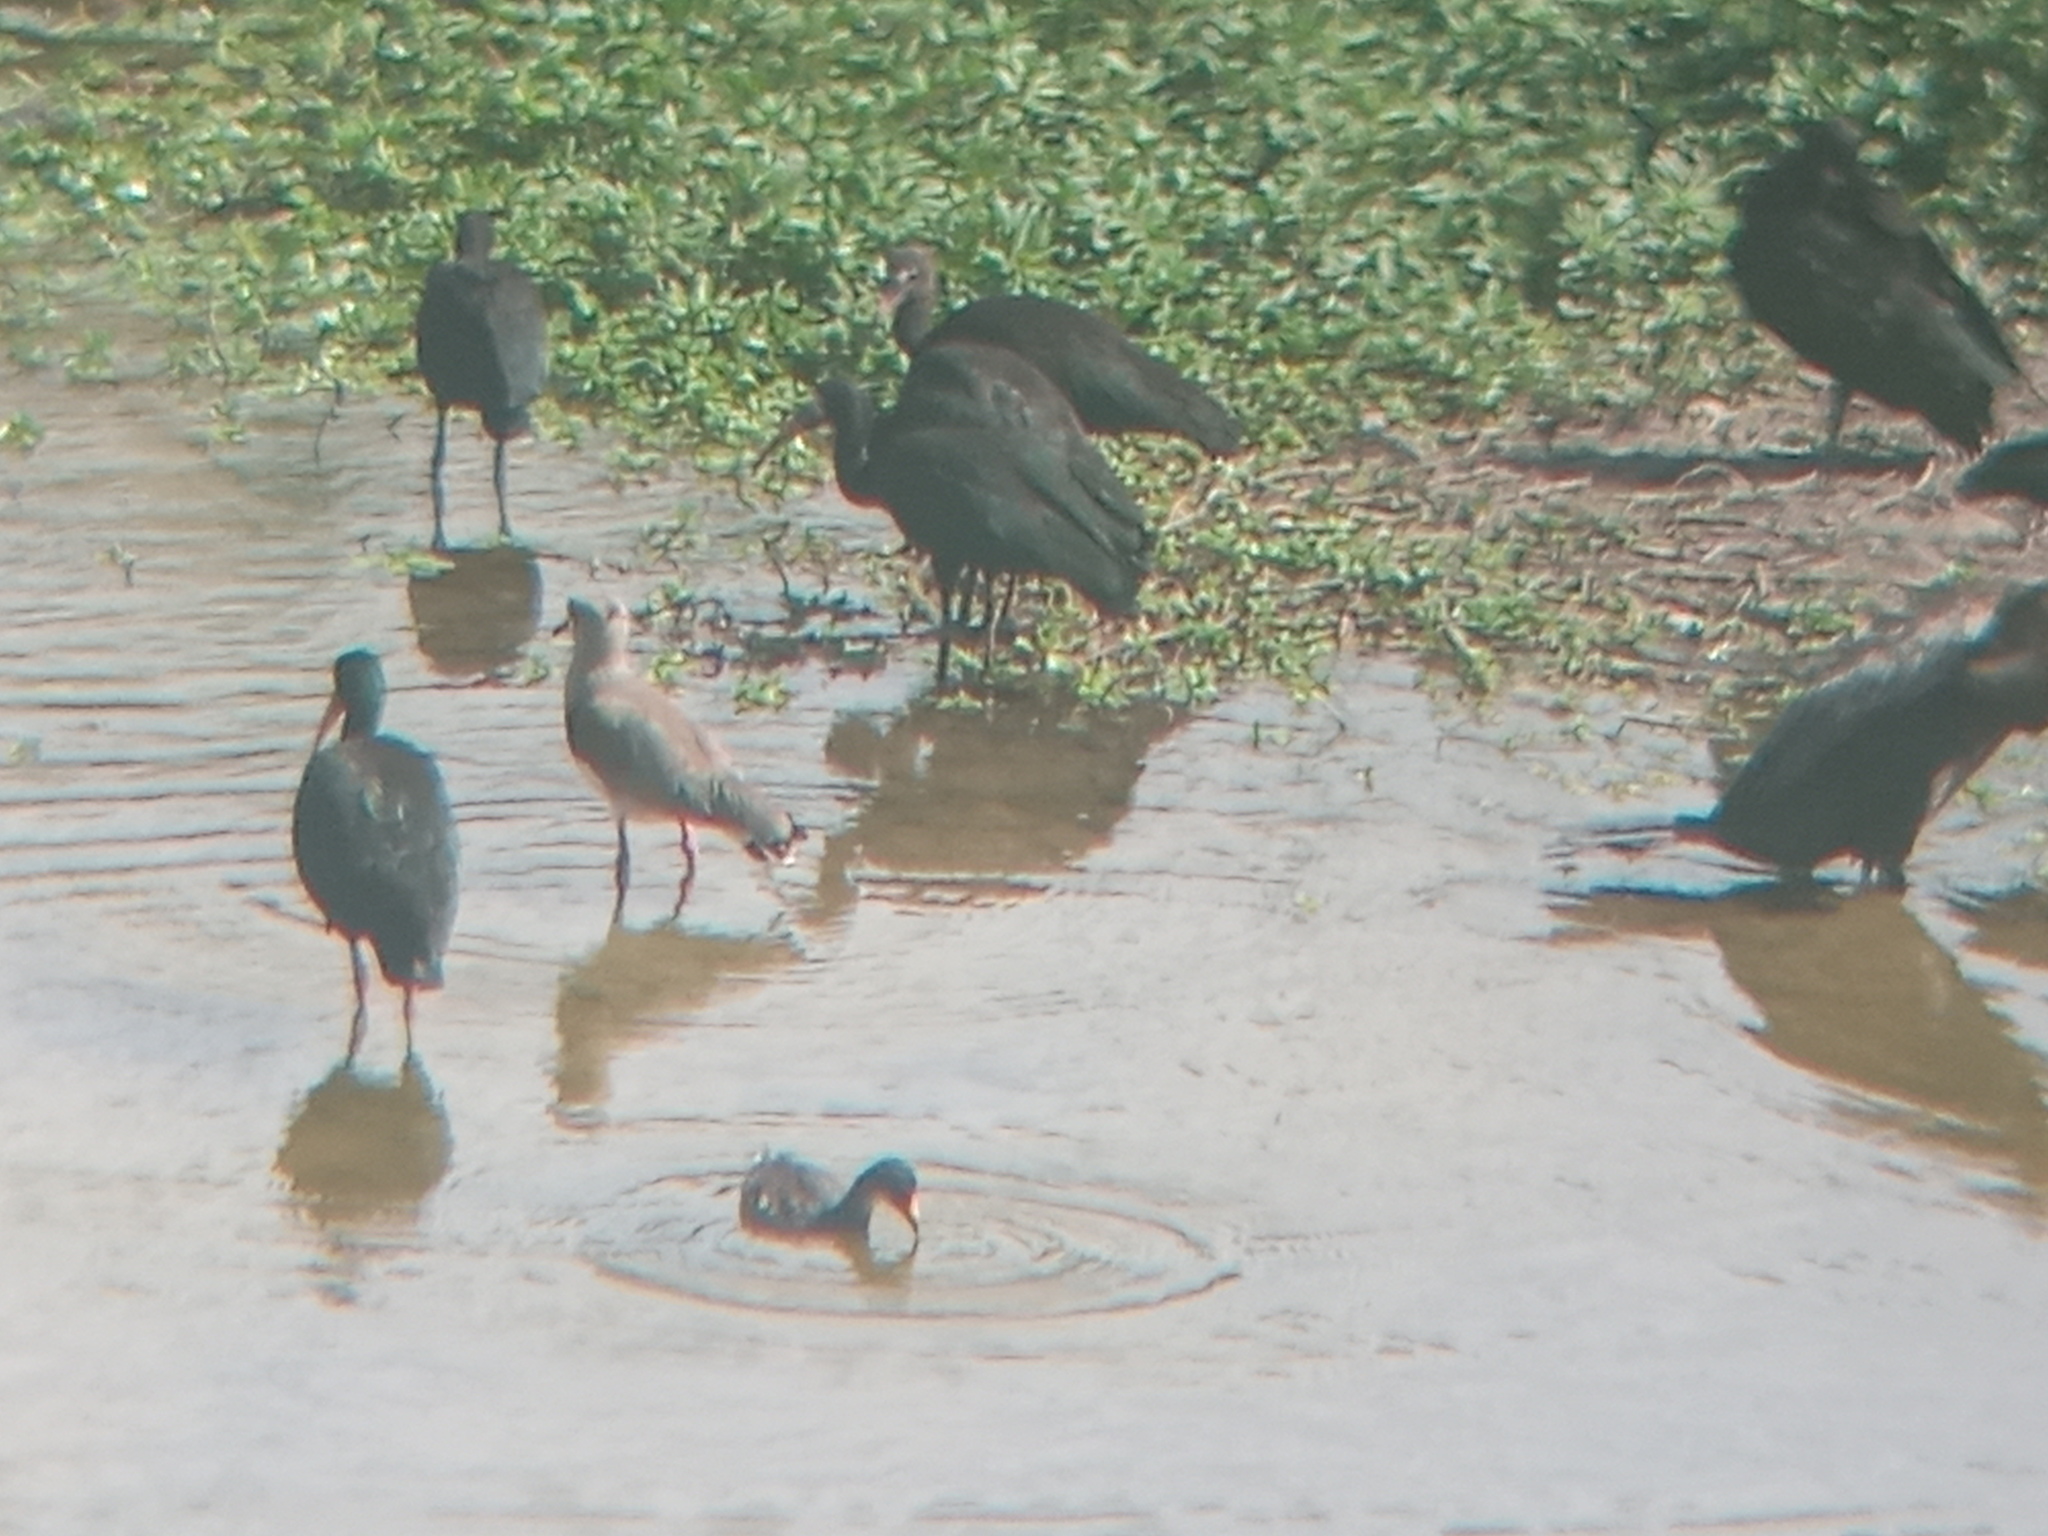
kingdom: Animalia
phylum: Chordata
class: Aves
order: Charadriiformes
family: Charadriidae
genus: Vanellus
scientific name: Vanellus chilensis
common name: Southern lapwing
